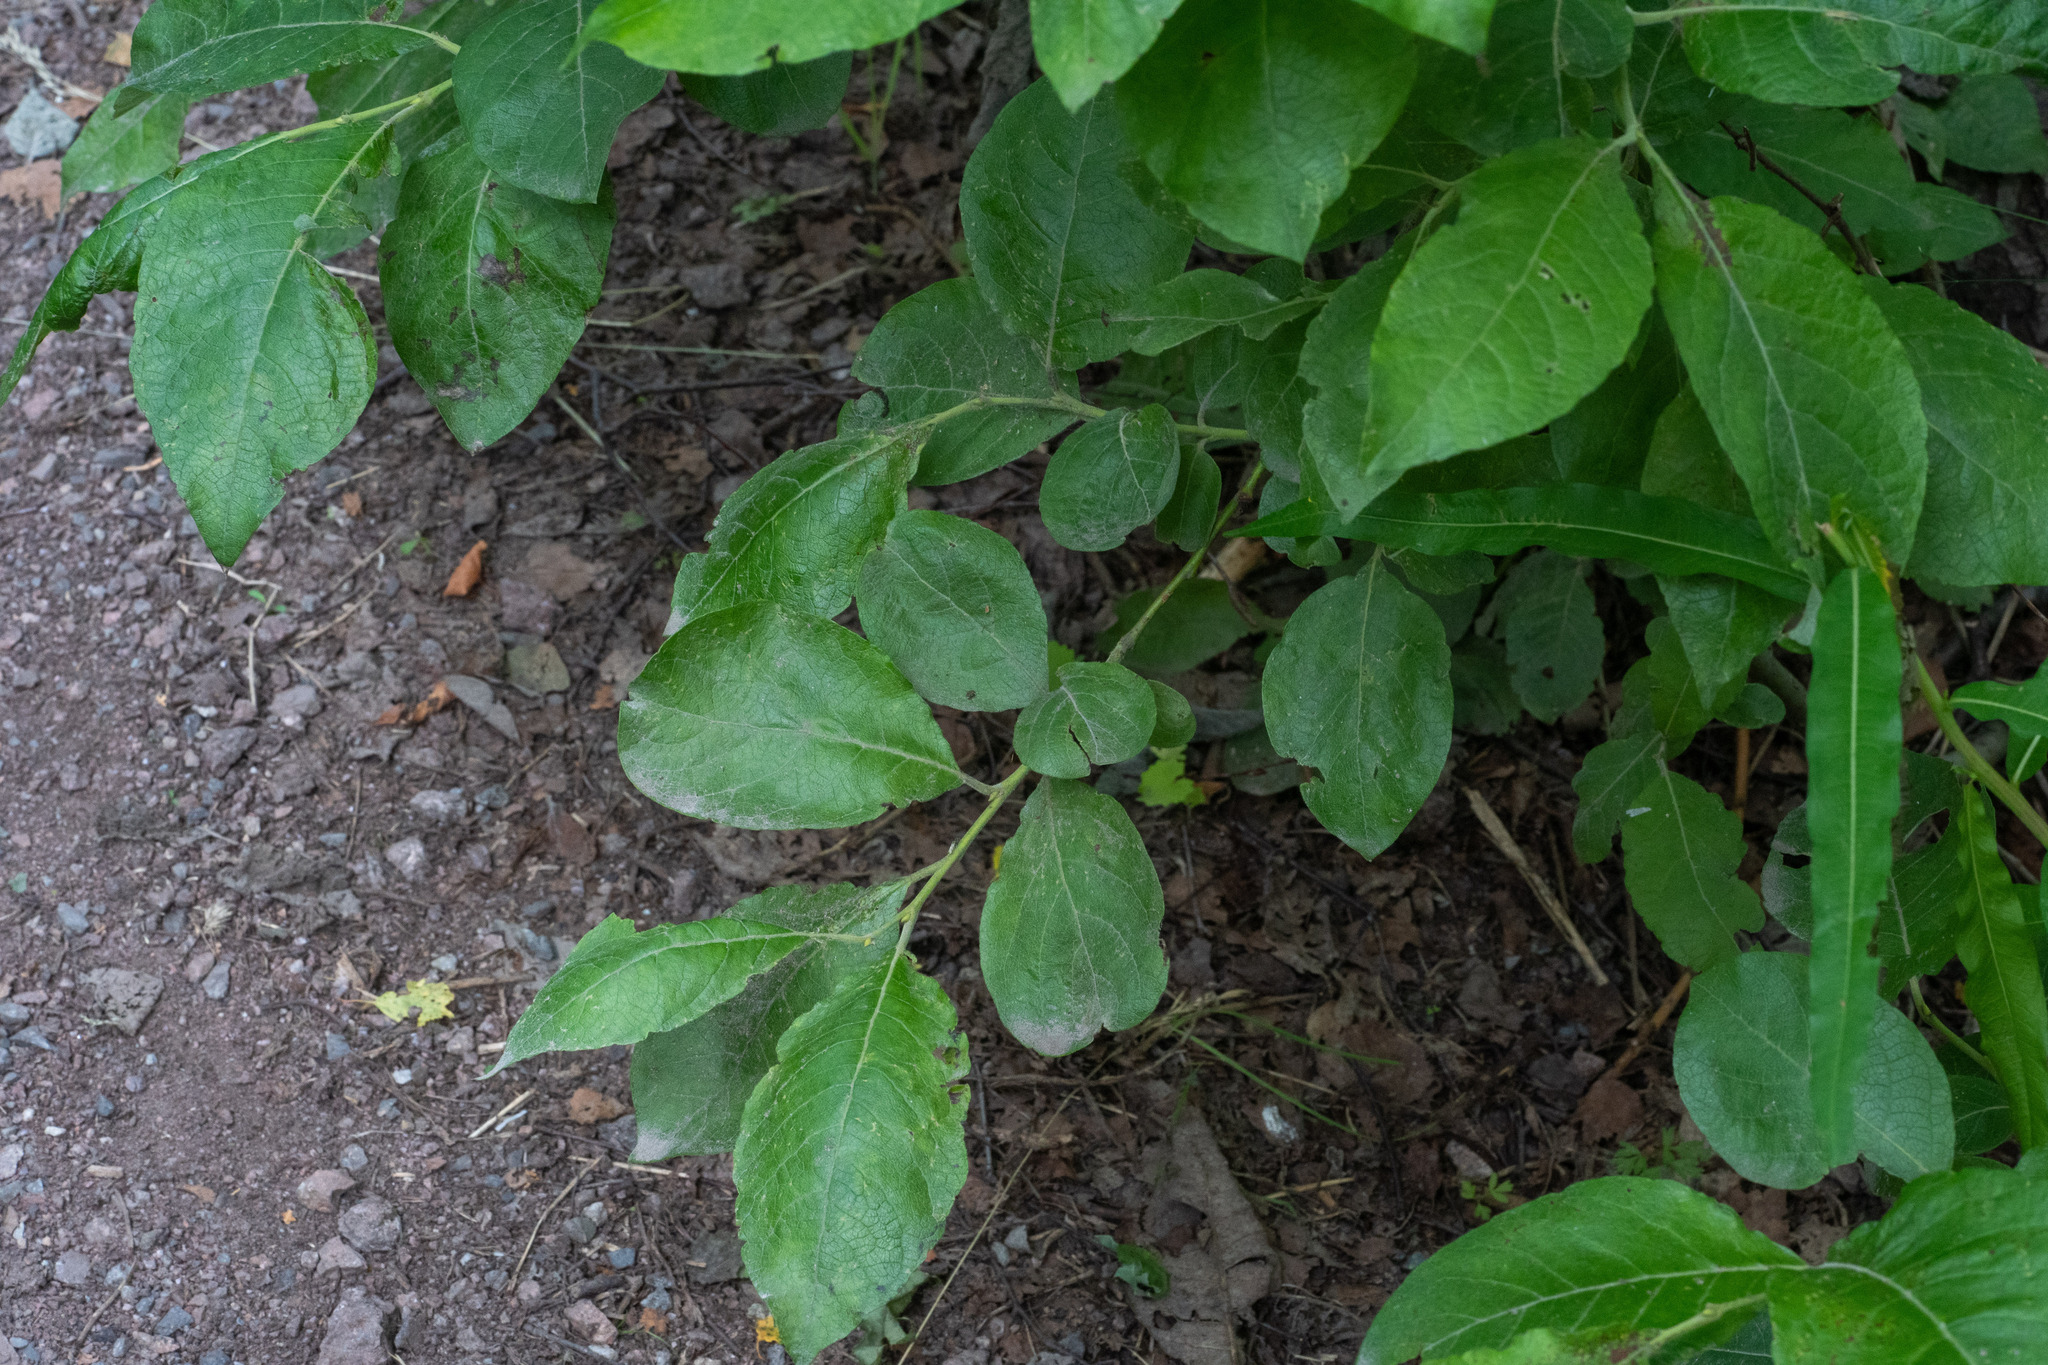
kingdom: Plantae
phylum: Tracheophyta
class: Magnoliopsida
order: Malpighiales
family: Salicaceae
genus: Salix
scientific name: Salix caprea
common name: Goat willow
